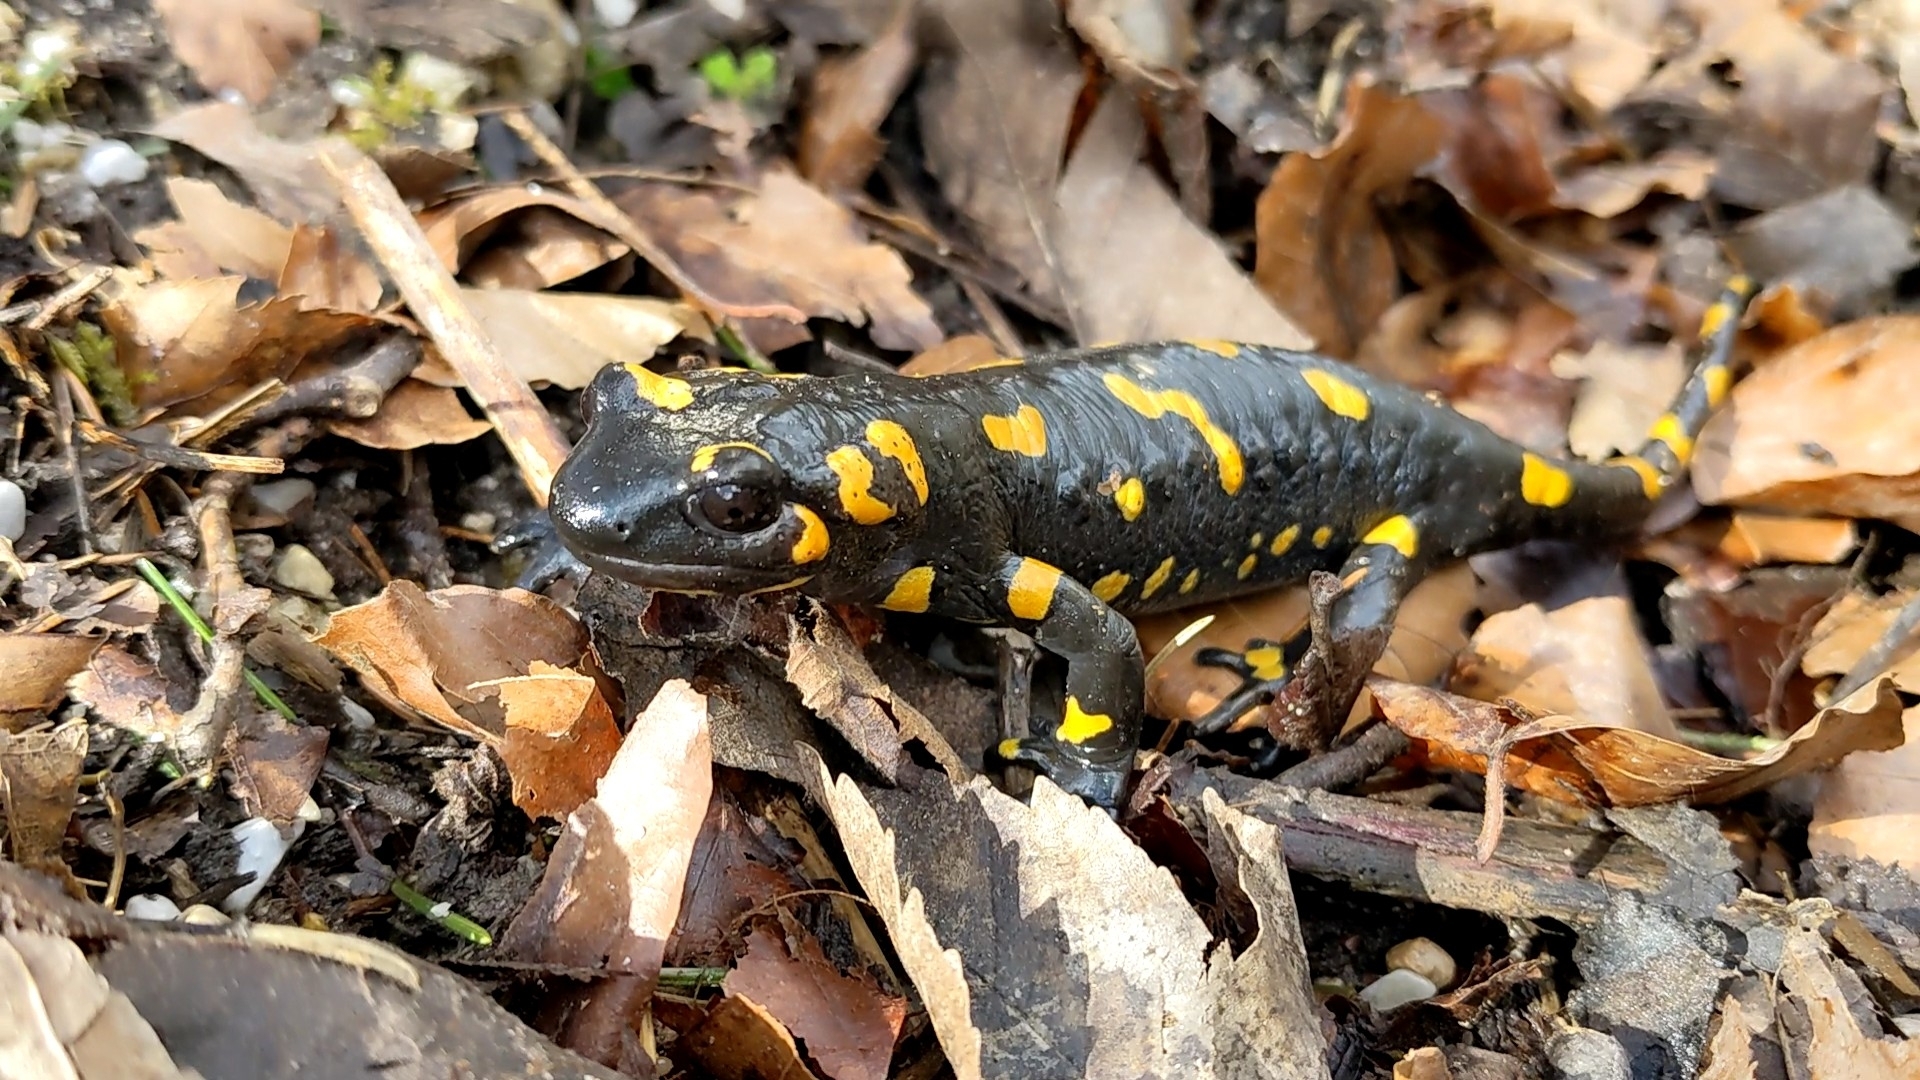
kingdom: Animalia
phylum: Chordata
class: Amphibia
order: Caudata
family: Salamandridae
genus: Salamandra
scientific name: Salamandra salamandra
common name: Fire salamander
